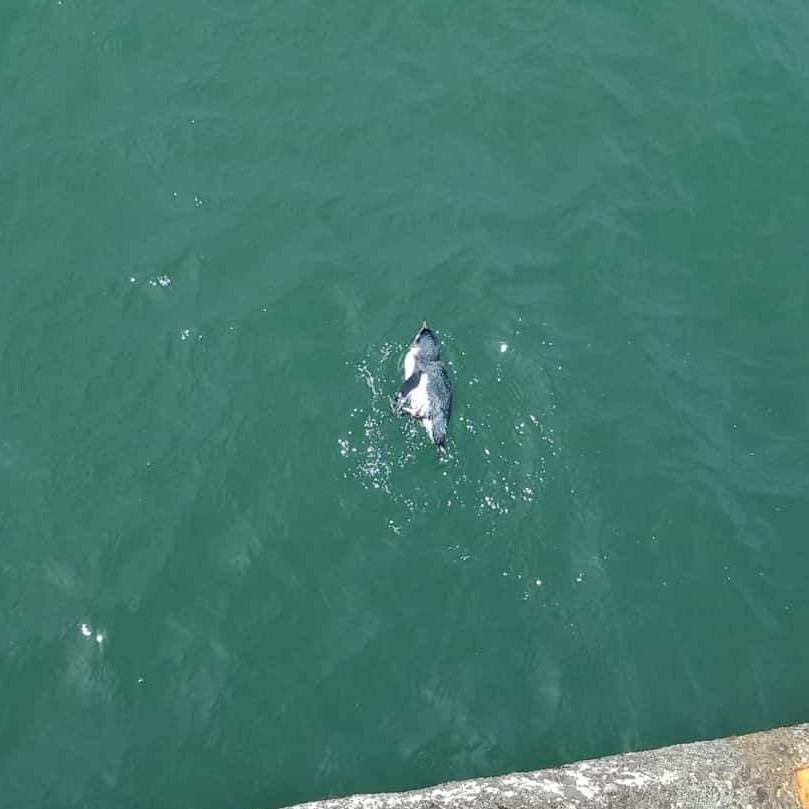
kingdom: Animalia
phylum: Chordata
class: Aves
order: Sphenisciformes
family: Spheniscidae
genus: Eudyptula
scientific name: Eudyptula minor
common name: Little penguin
